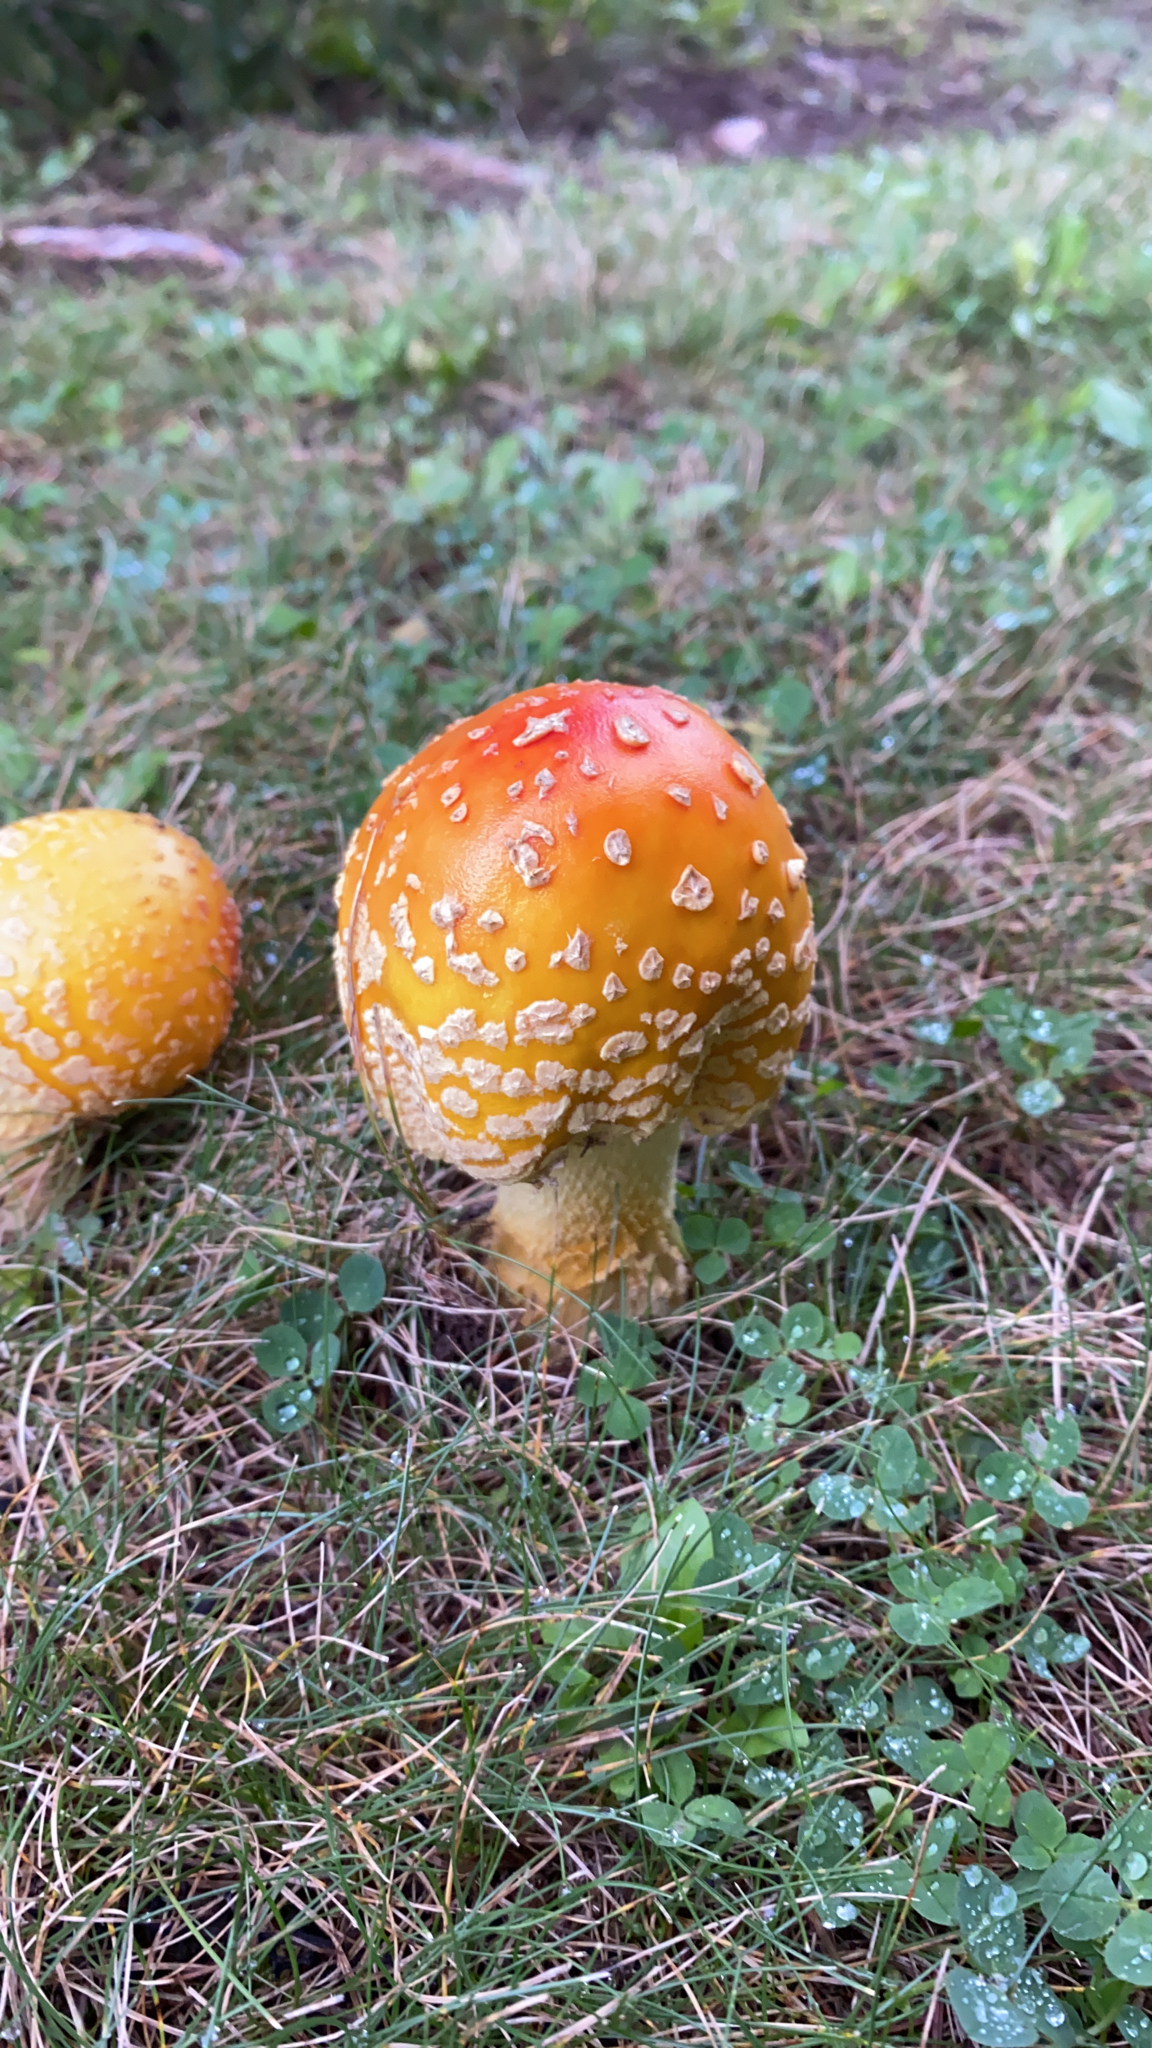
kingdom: Fungi
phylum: Basidiomycota
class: Agaricomycetes
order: Agaricales
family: Amanitaceae
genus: Amanita
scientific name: Amanita muscaria
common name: Fly agaric
